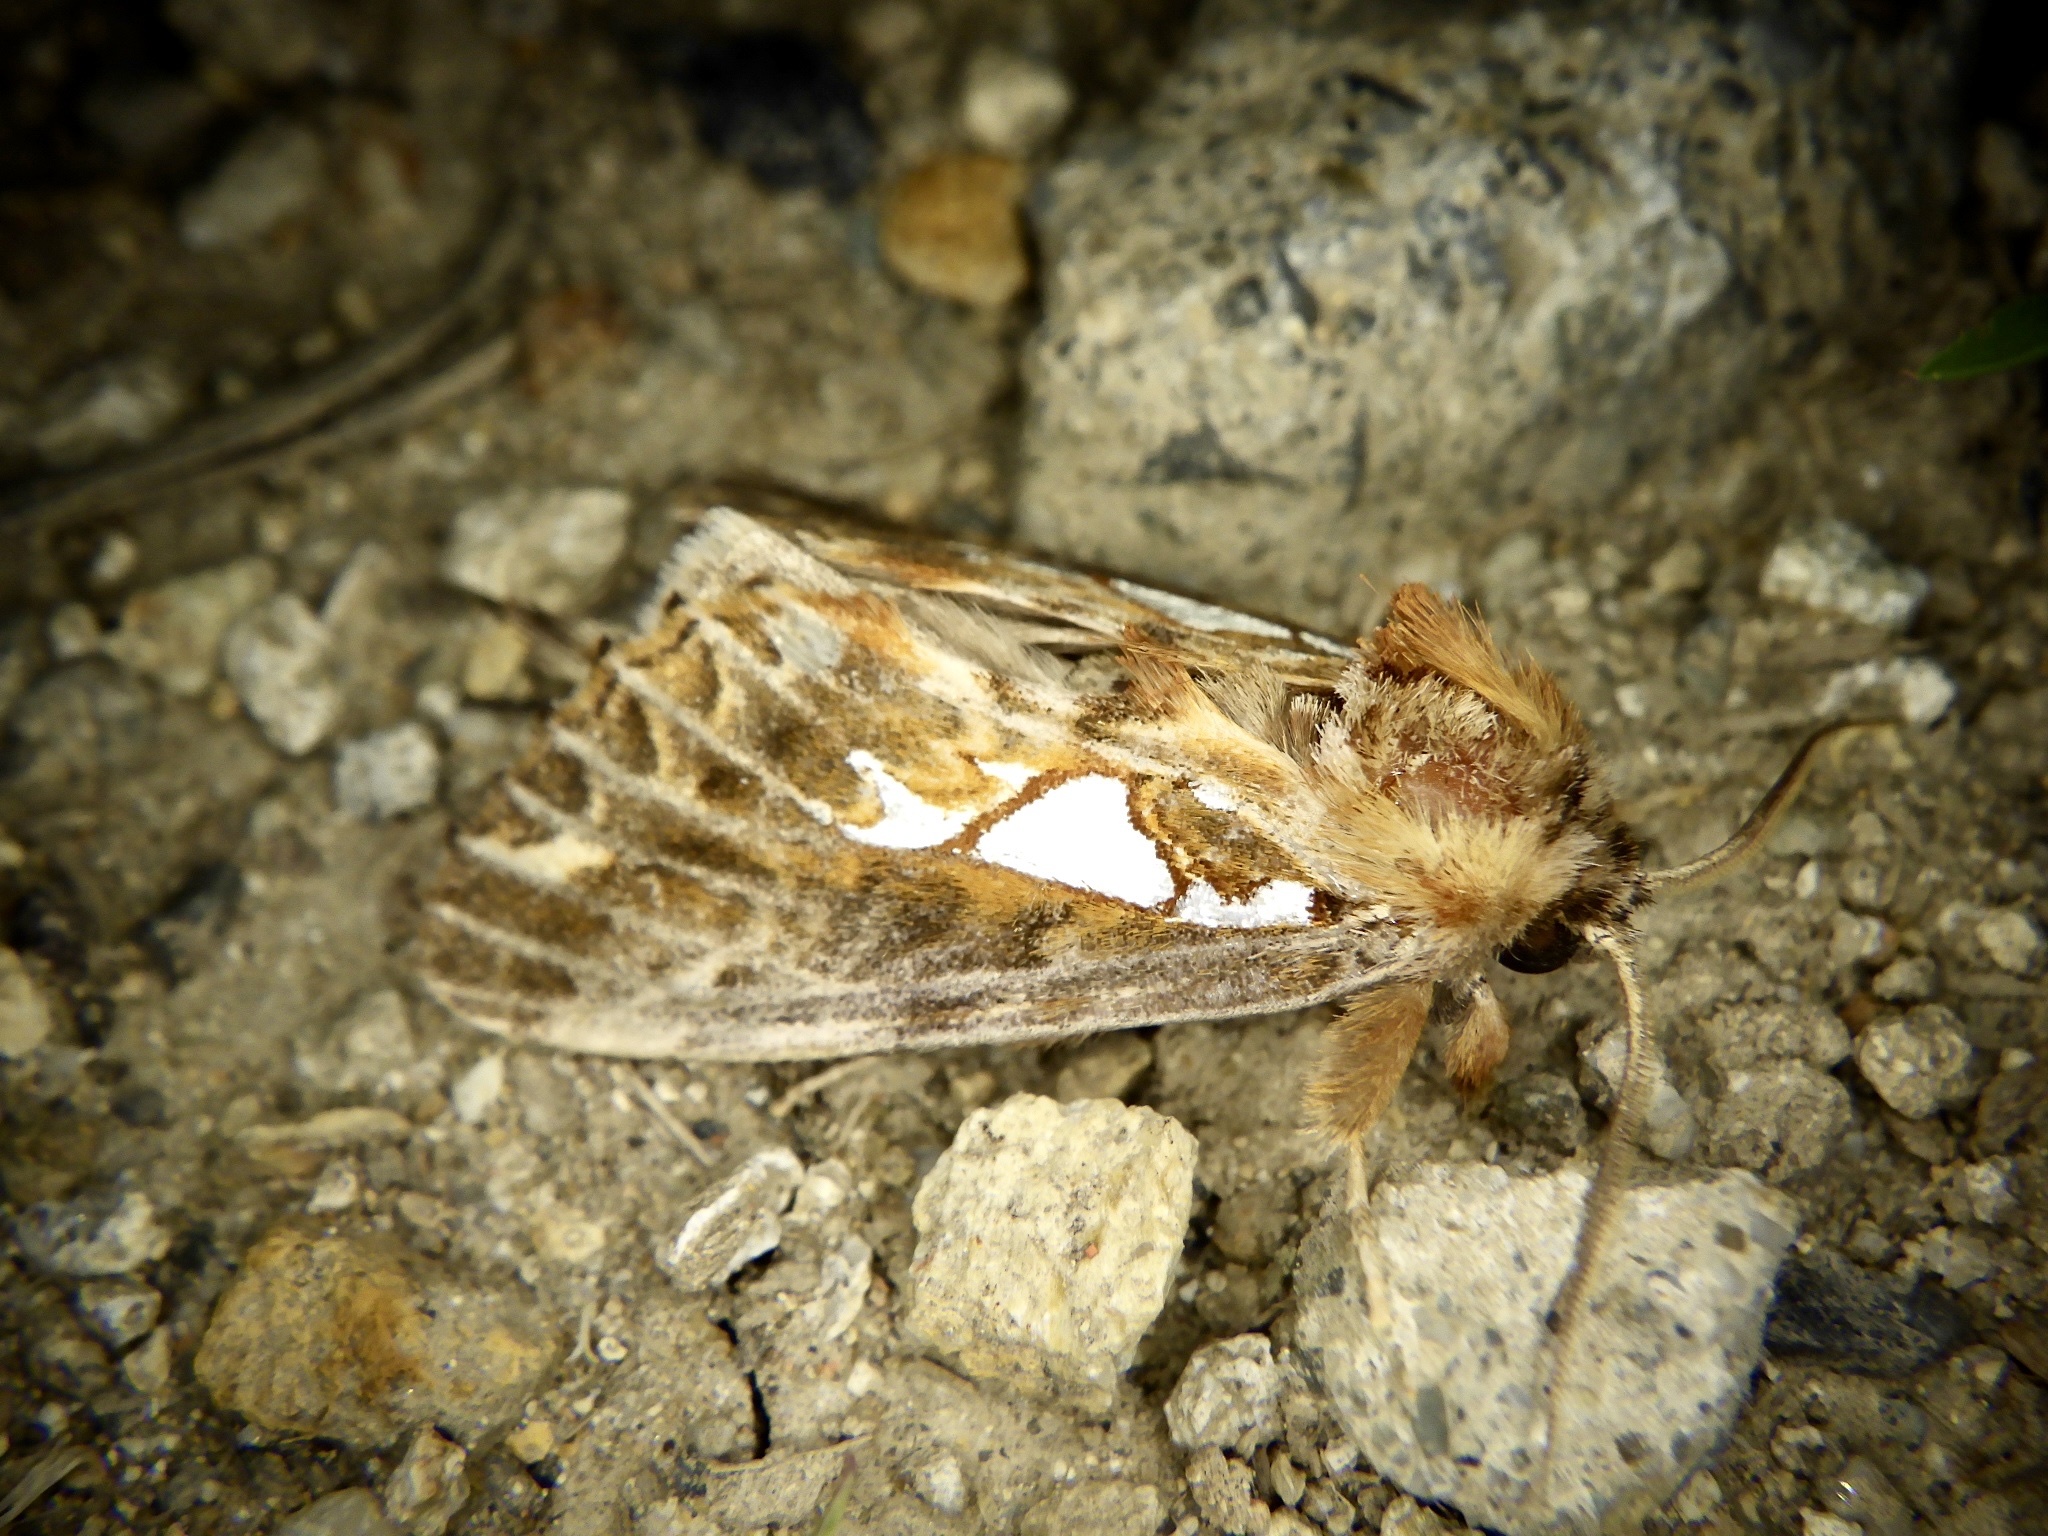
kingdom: Animalia
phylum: Arthropoda
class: Insecta
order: Lepidoptera
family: Notodontidae
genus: Spatalia
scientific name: Spatalia doerriesi
